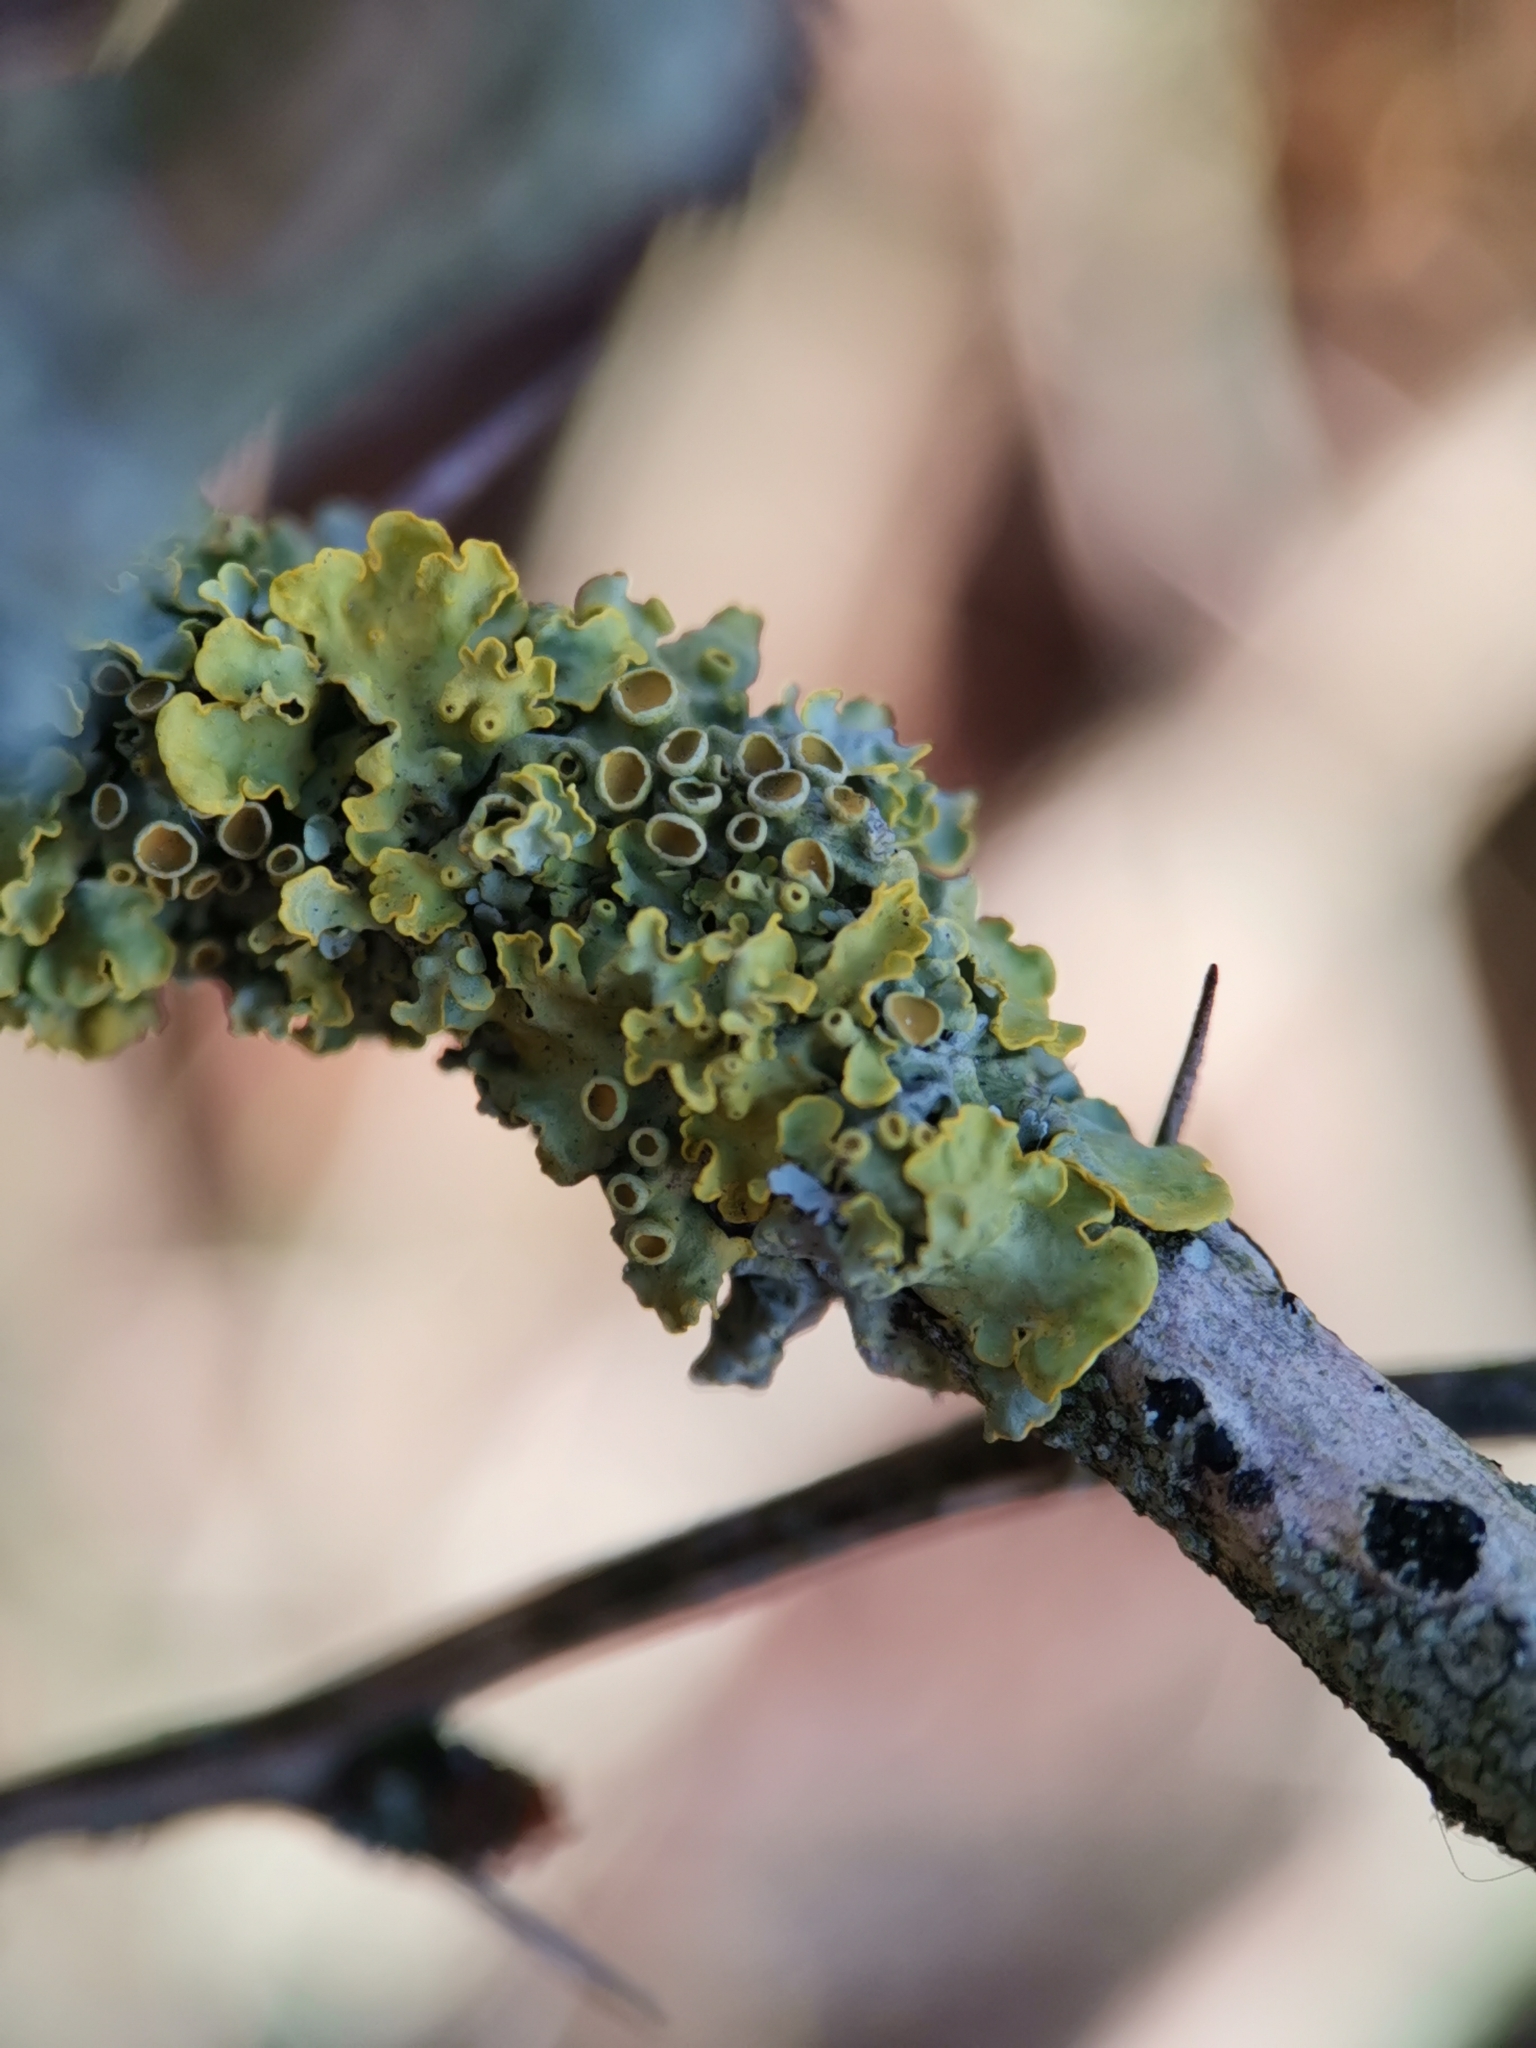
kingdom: Fungi
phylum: Ascomycota
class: Lecanoromycetes
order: Teloschistales
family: Teloschistaceae
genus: Xanthoria
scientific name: Xanthoria parietina
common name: Common orange lichen
